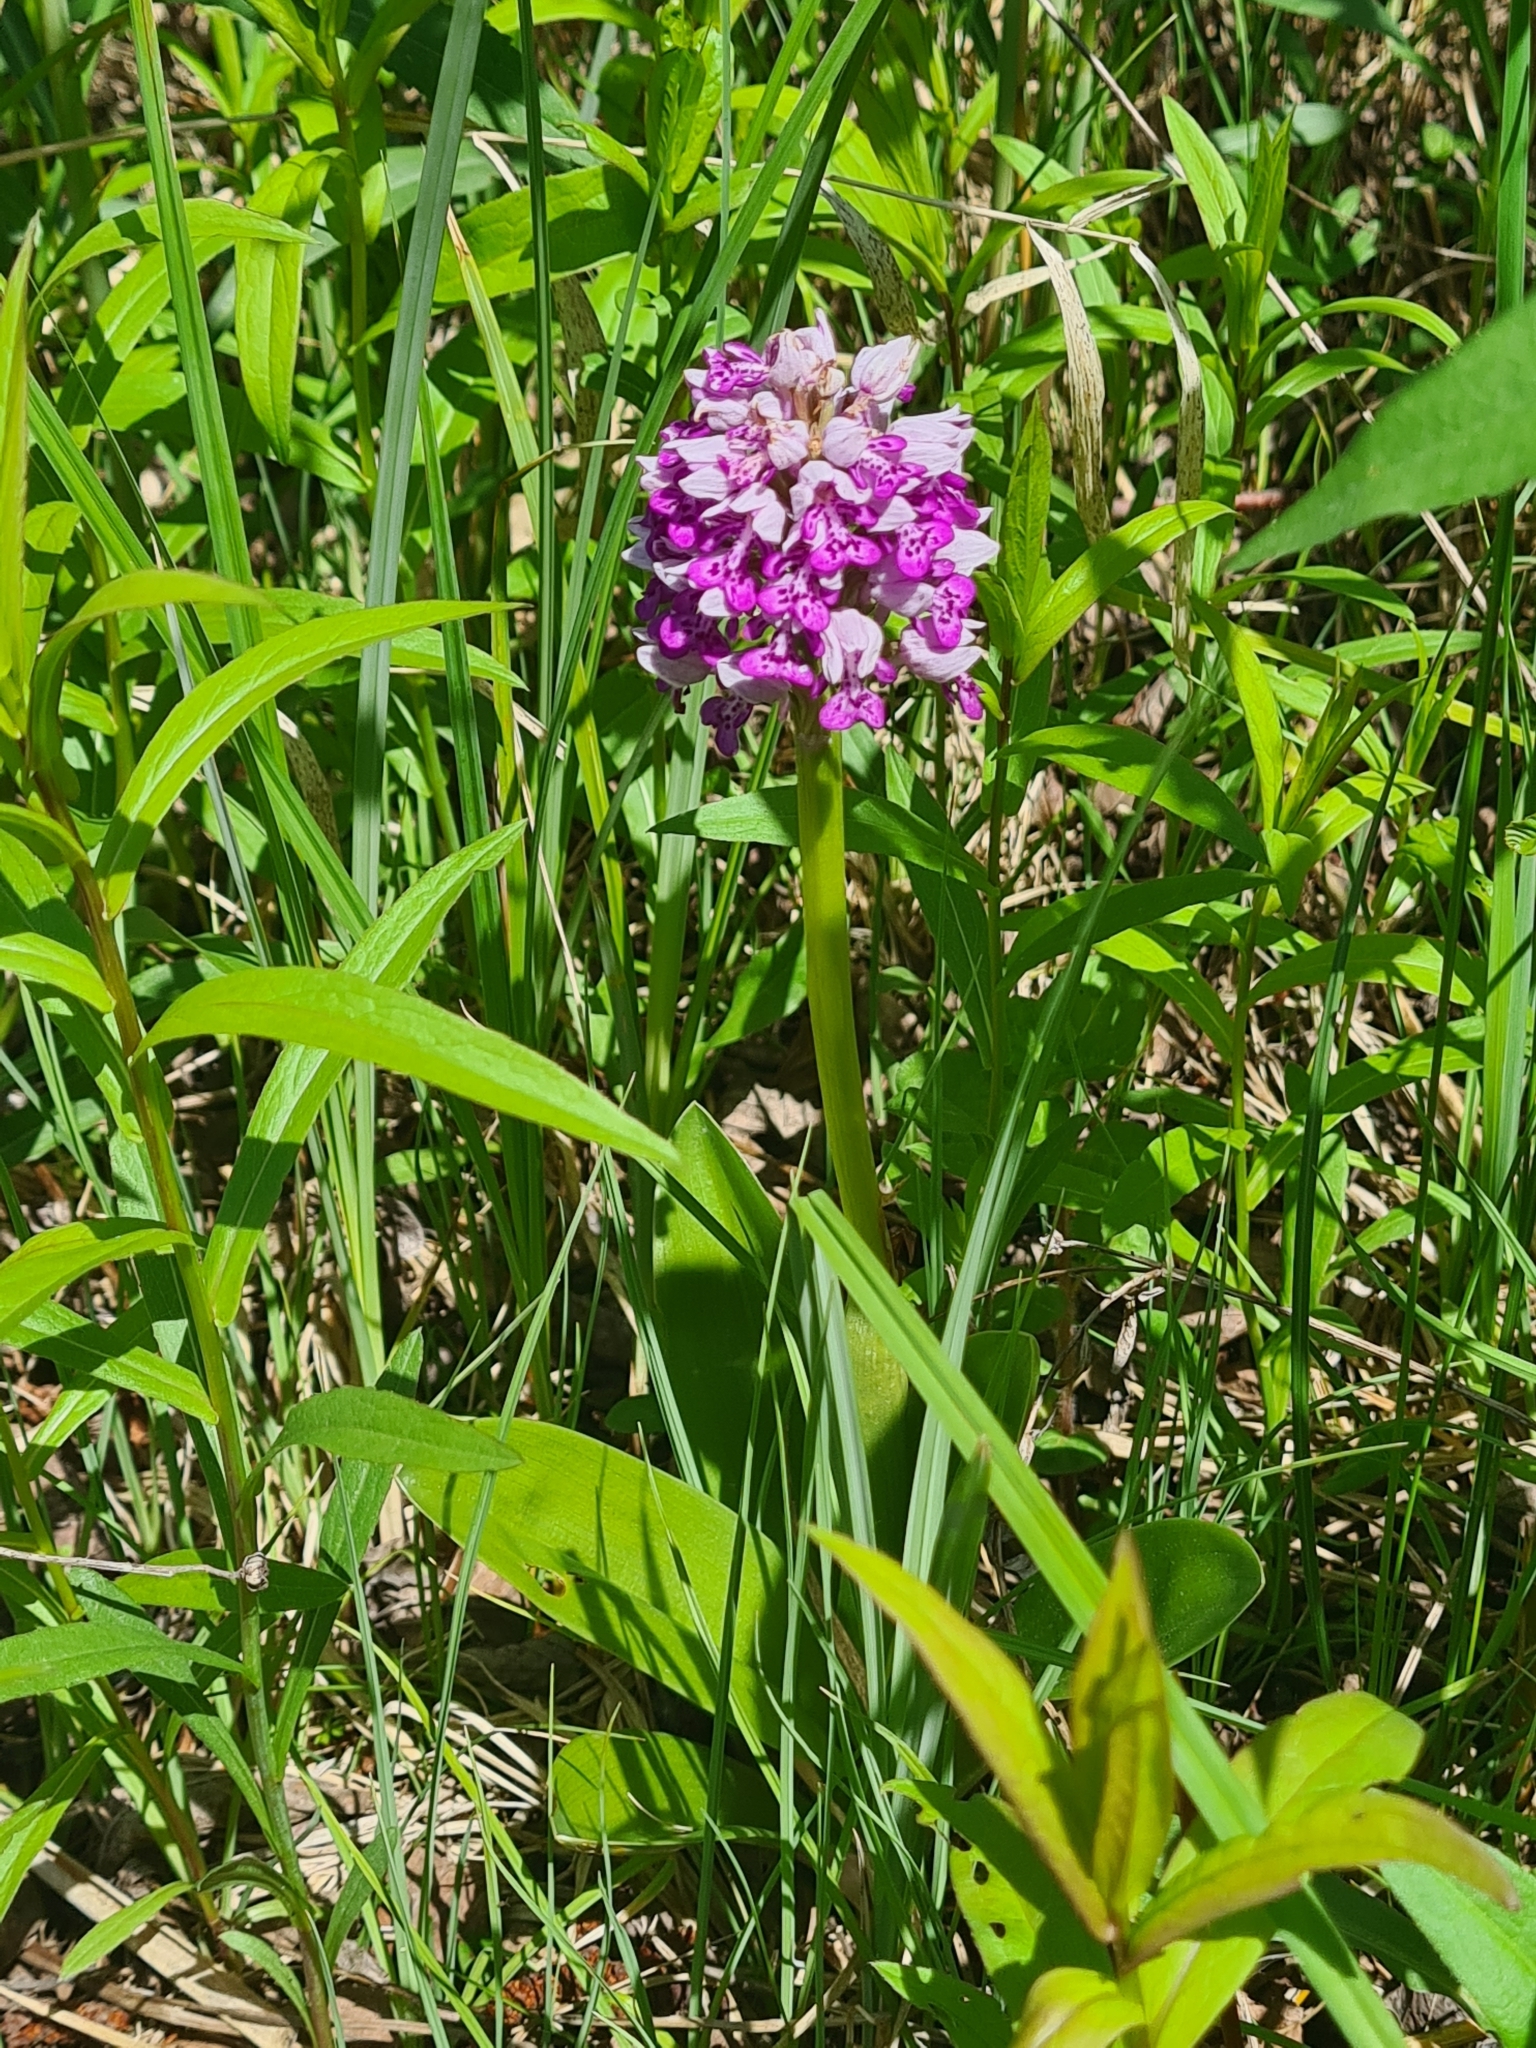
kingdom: Plantae
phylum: Tracheophyta
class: Liliopsida
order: Asparagales
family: Orchidaceae
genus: Orchis
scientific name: Orchis militaris
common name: Military orchid
